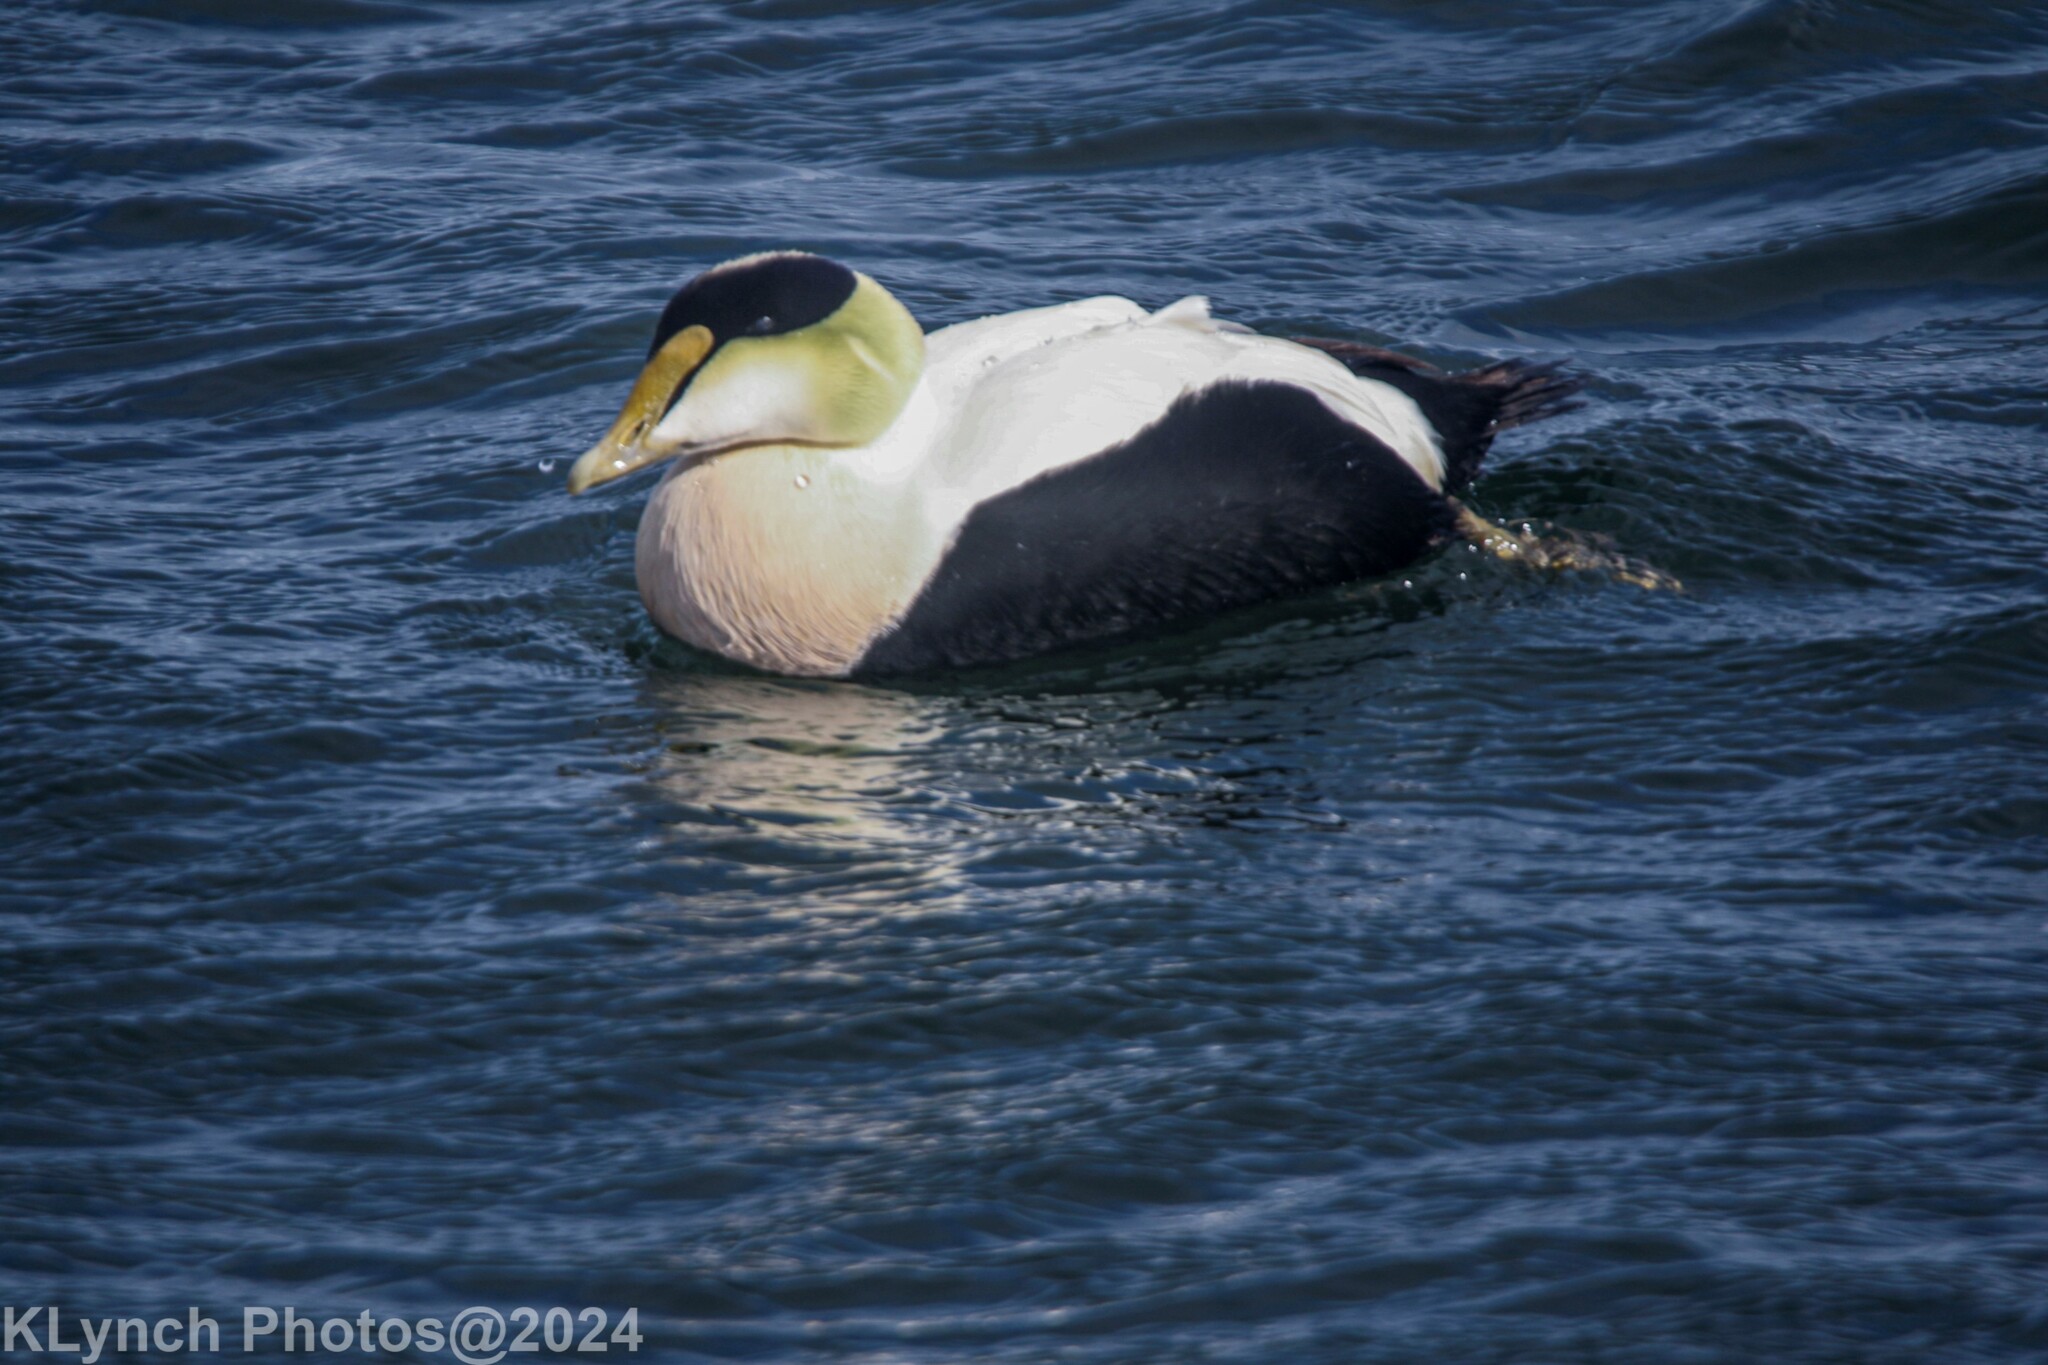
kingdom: Animalia
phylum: Chordata
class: Aves
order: Anseriformes
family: Anatidae
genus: Somateria
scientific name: Somateria mollissima
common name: Common eider
